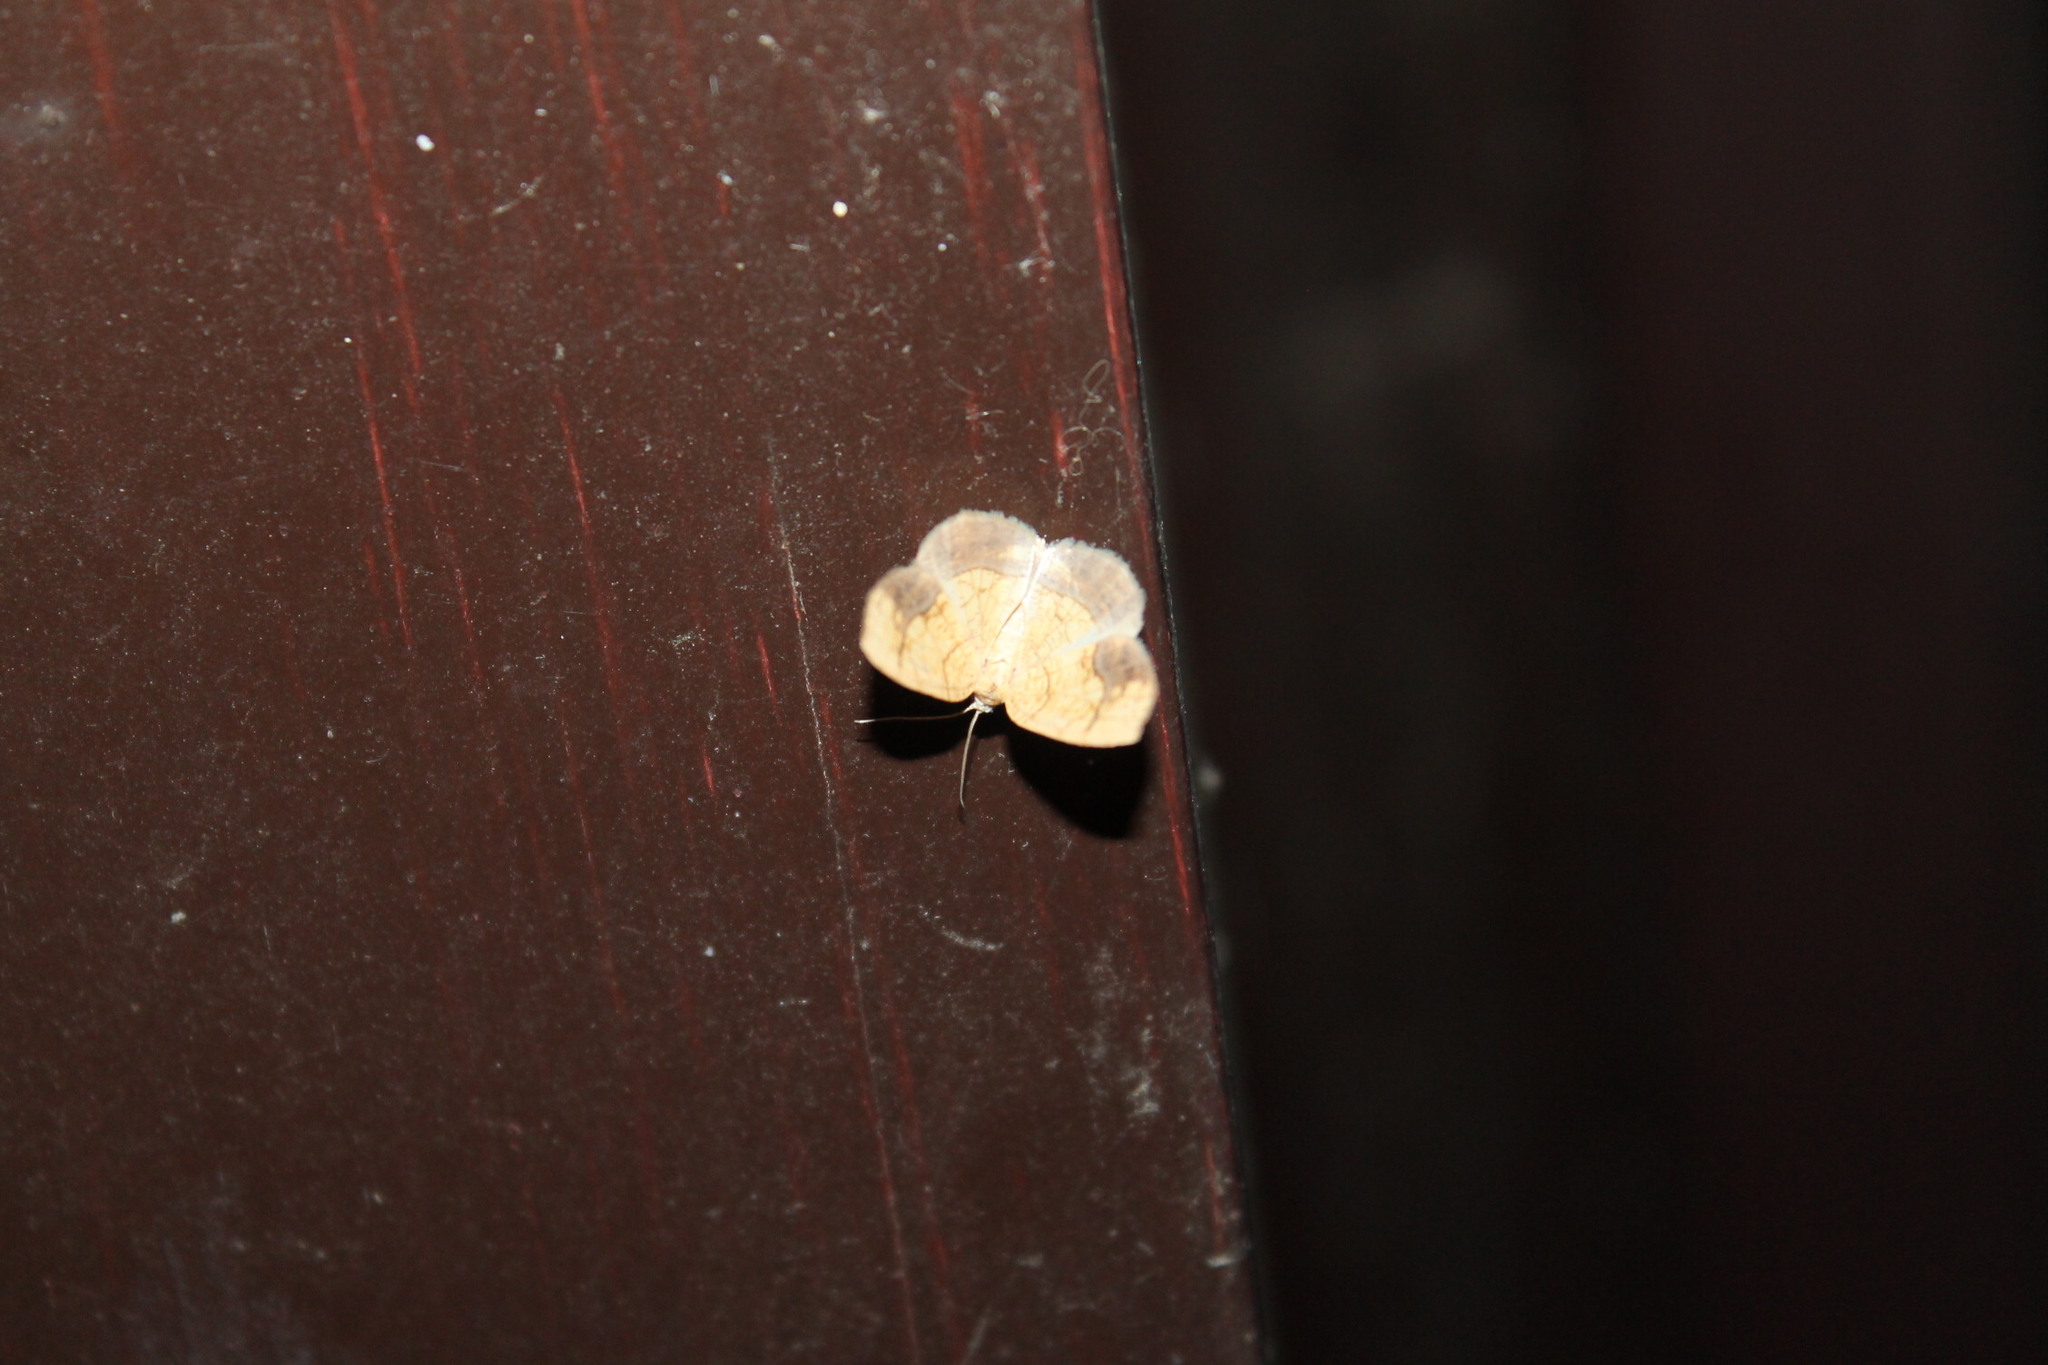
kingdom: Animalia
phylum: Arthropoda
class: Insecta
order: Lepidoptera
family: Geometridae
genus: Nematocampa
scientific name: Nematocampa resistaria
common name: Horned spanworm moth
